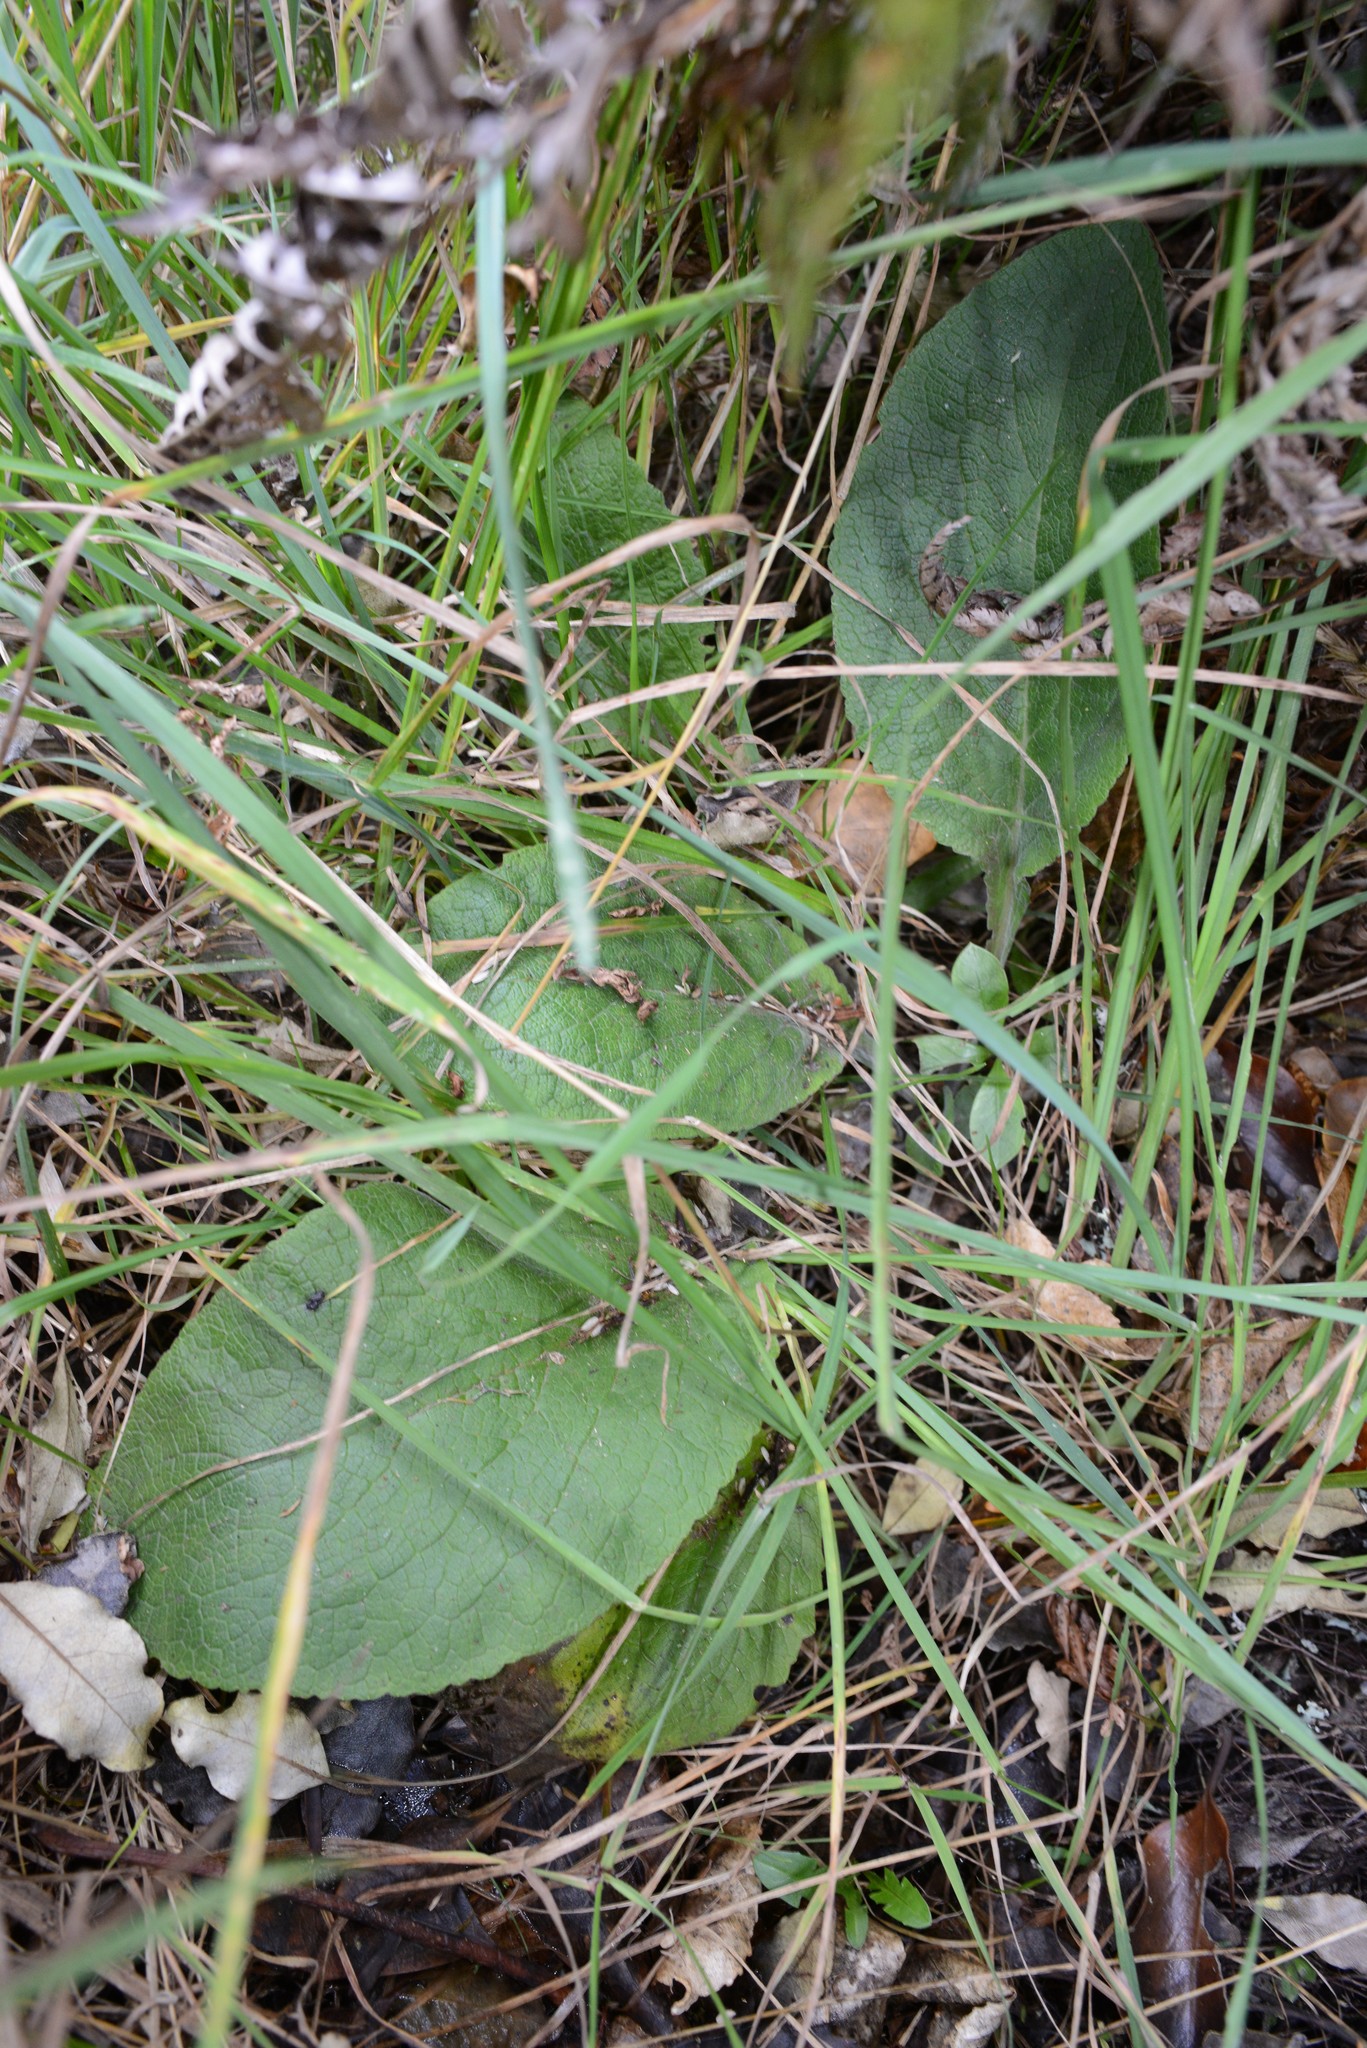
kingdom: Plantae
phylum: Tracheophyta
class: Magnoliopsida
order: Lamiales
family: Plantaginaceae
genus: Digitalis
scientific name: Digitalis purpurea
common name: Foxglove
